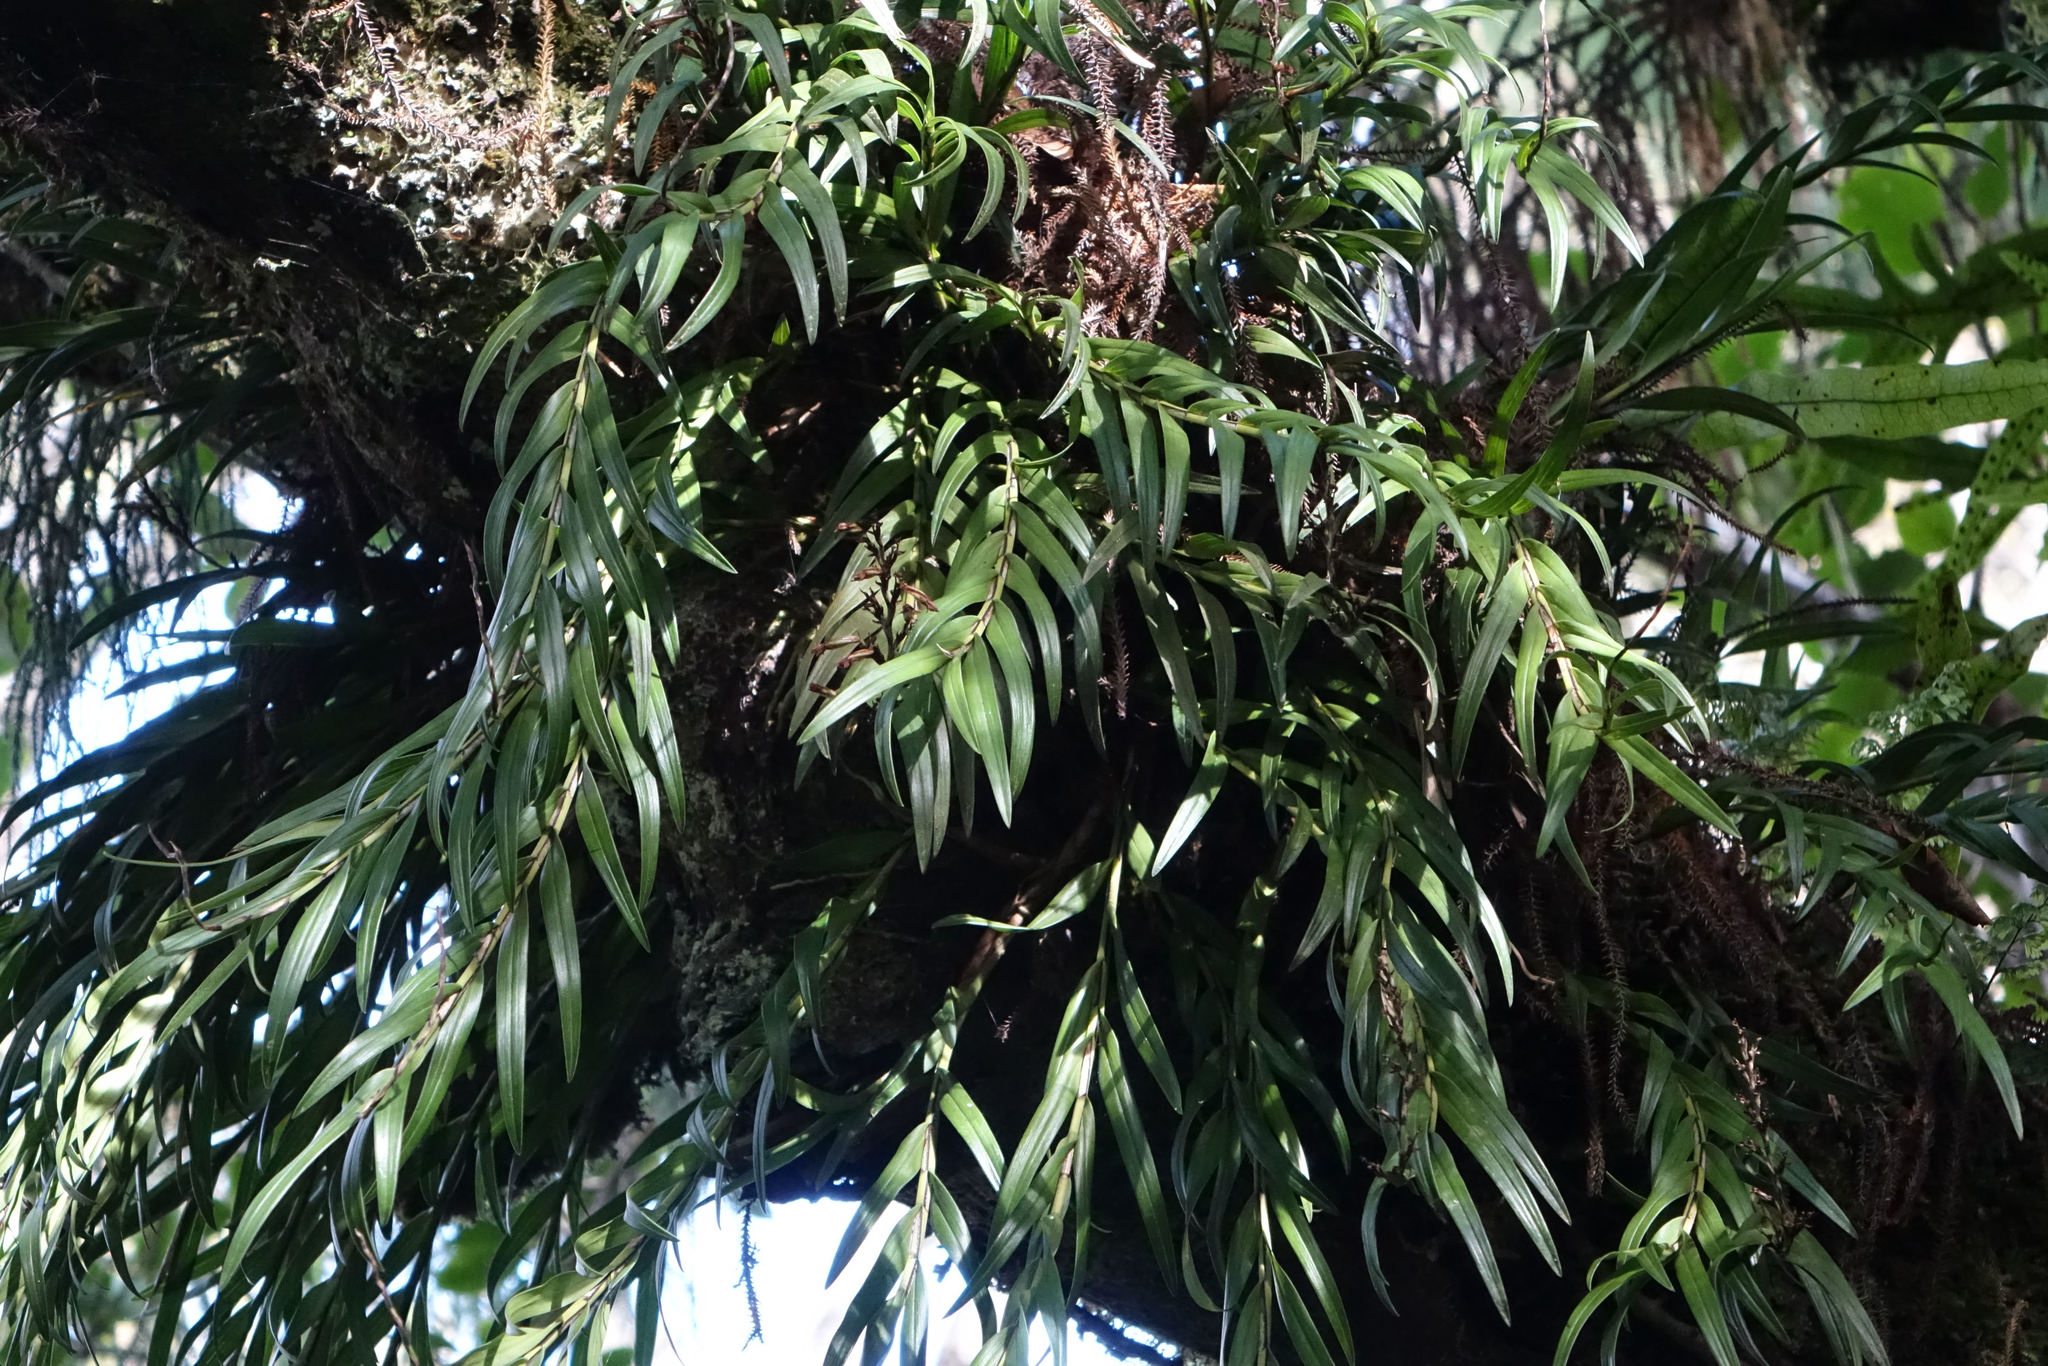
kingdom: Plantae
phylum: Tracheophyta
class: Liliopsida
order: Asparagales
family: Orchidaceae
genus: Earina
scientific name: Earina autumnalis
